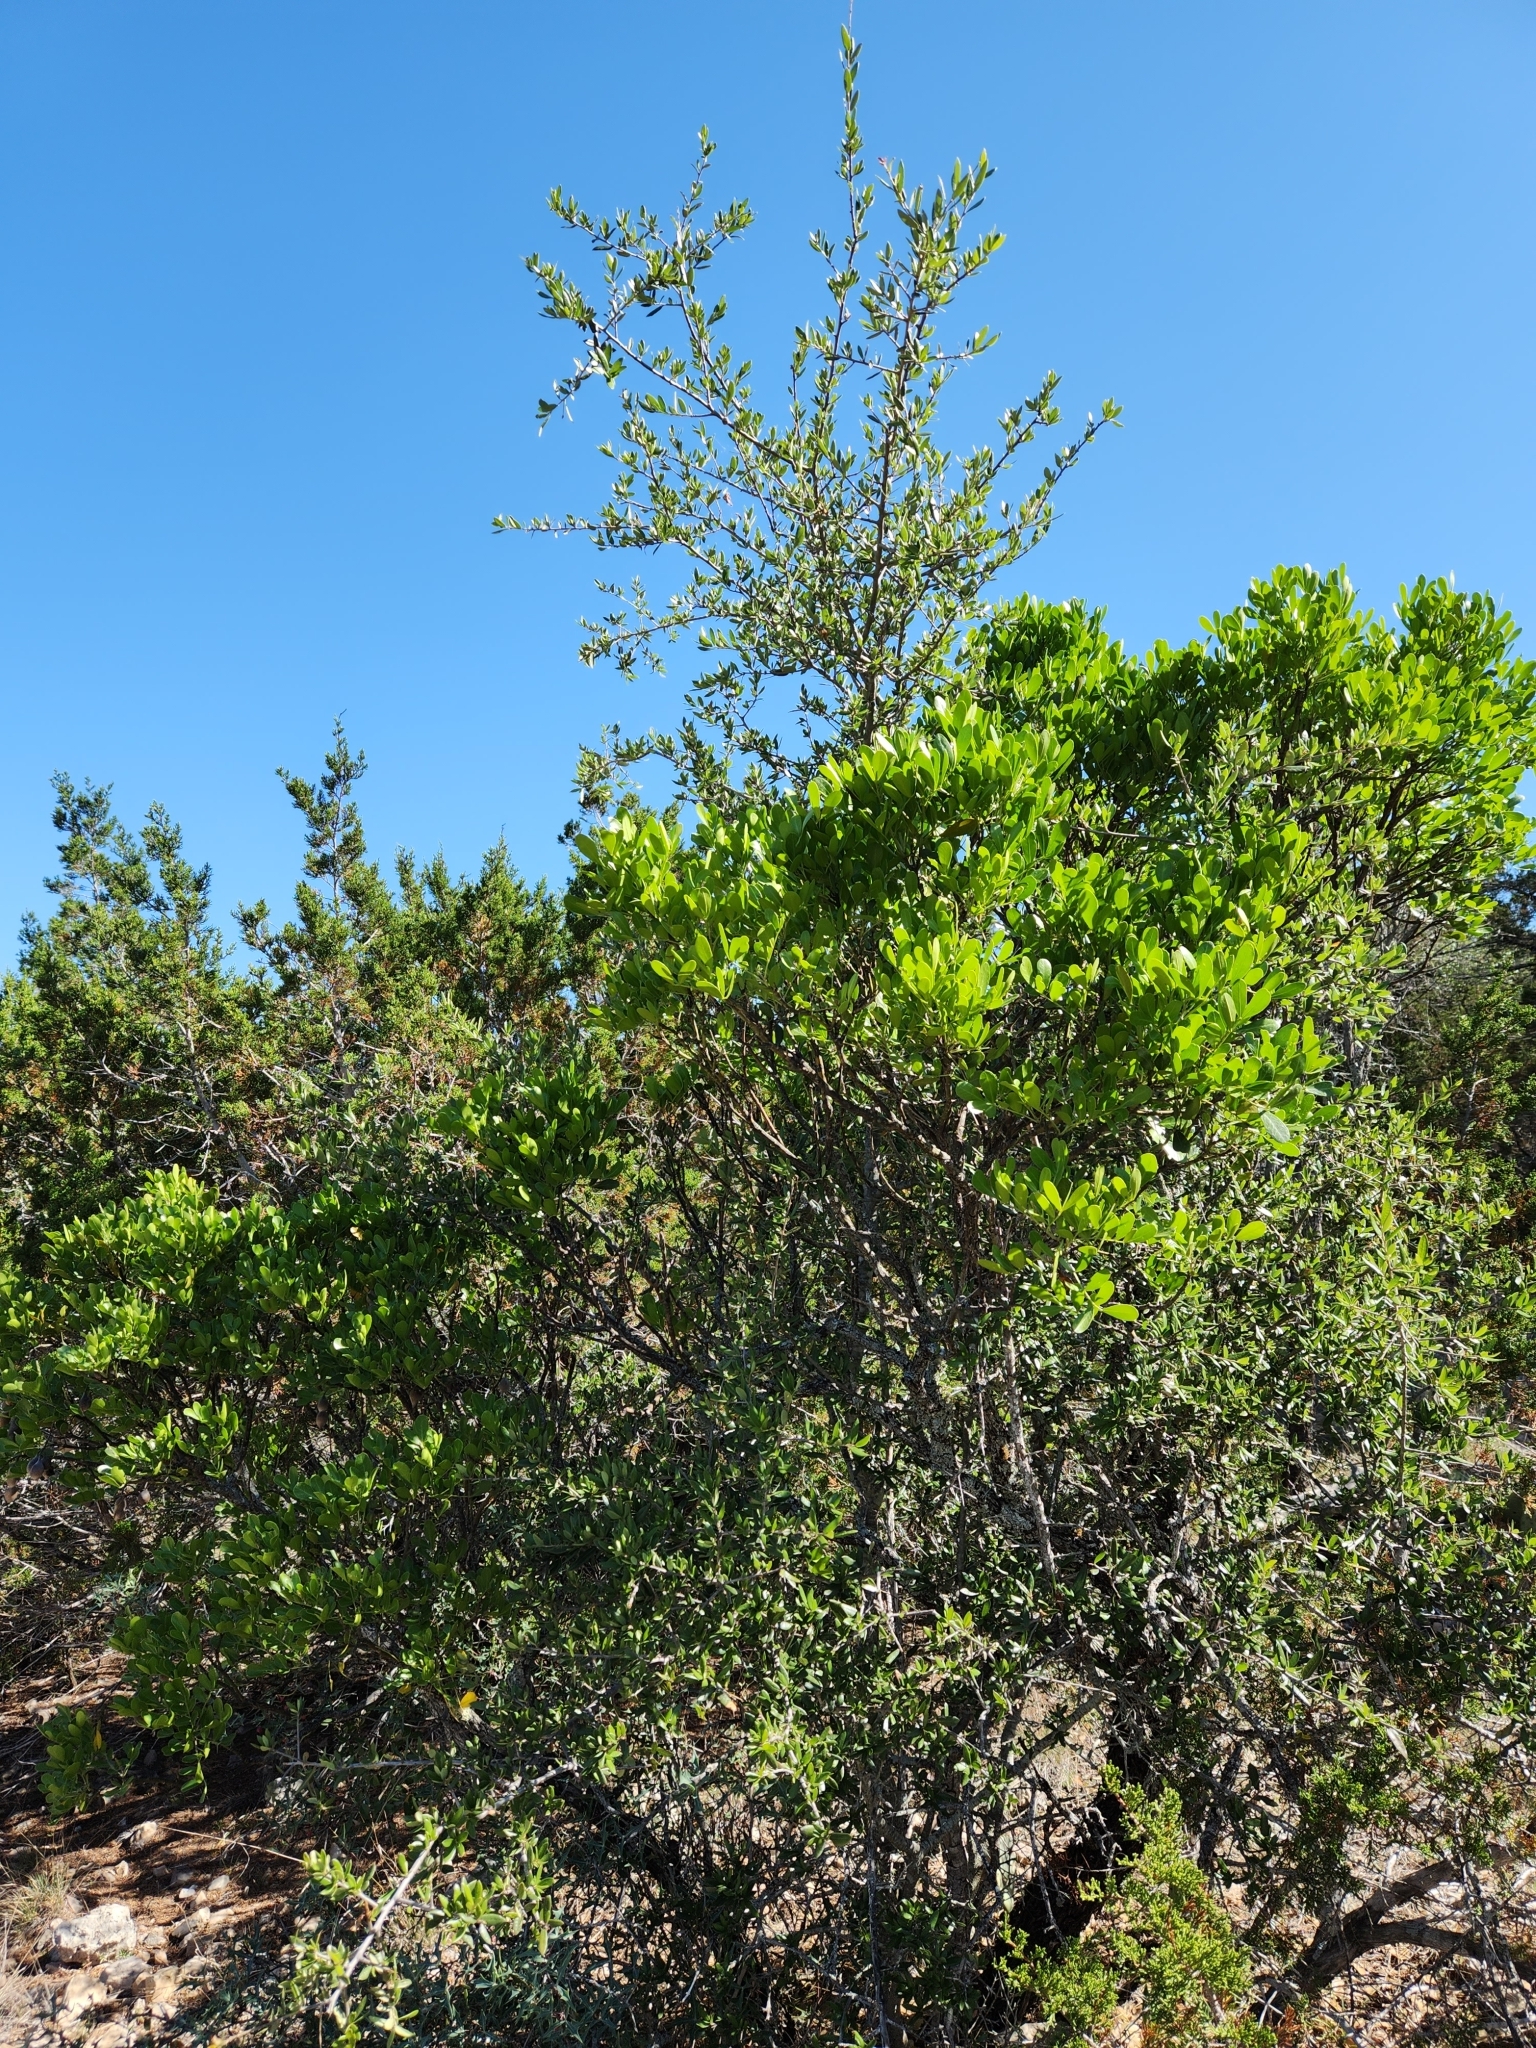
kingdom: Plantae
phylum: Tracheophyta
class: Magnoliopsida
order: Fagales
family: Fagaceae
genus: Quercus
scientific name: Quercus fusiformis
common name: Texas live oak
